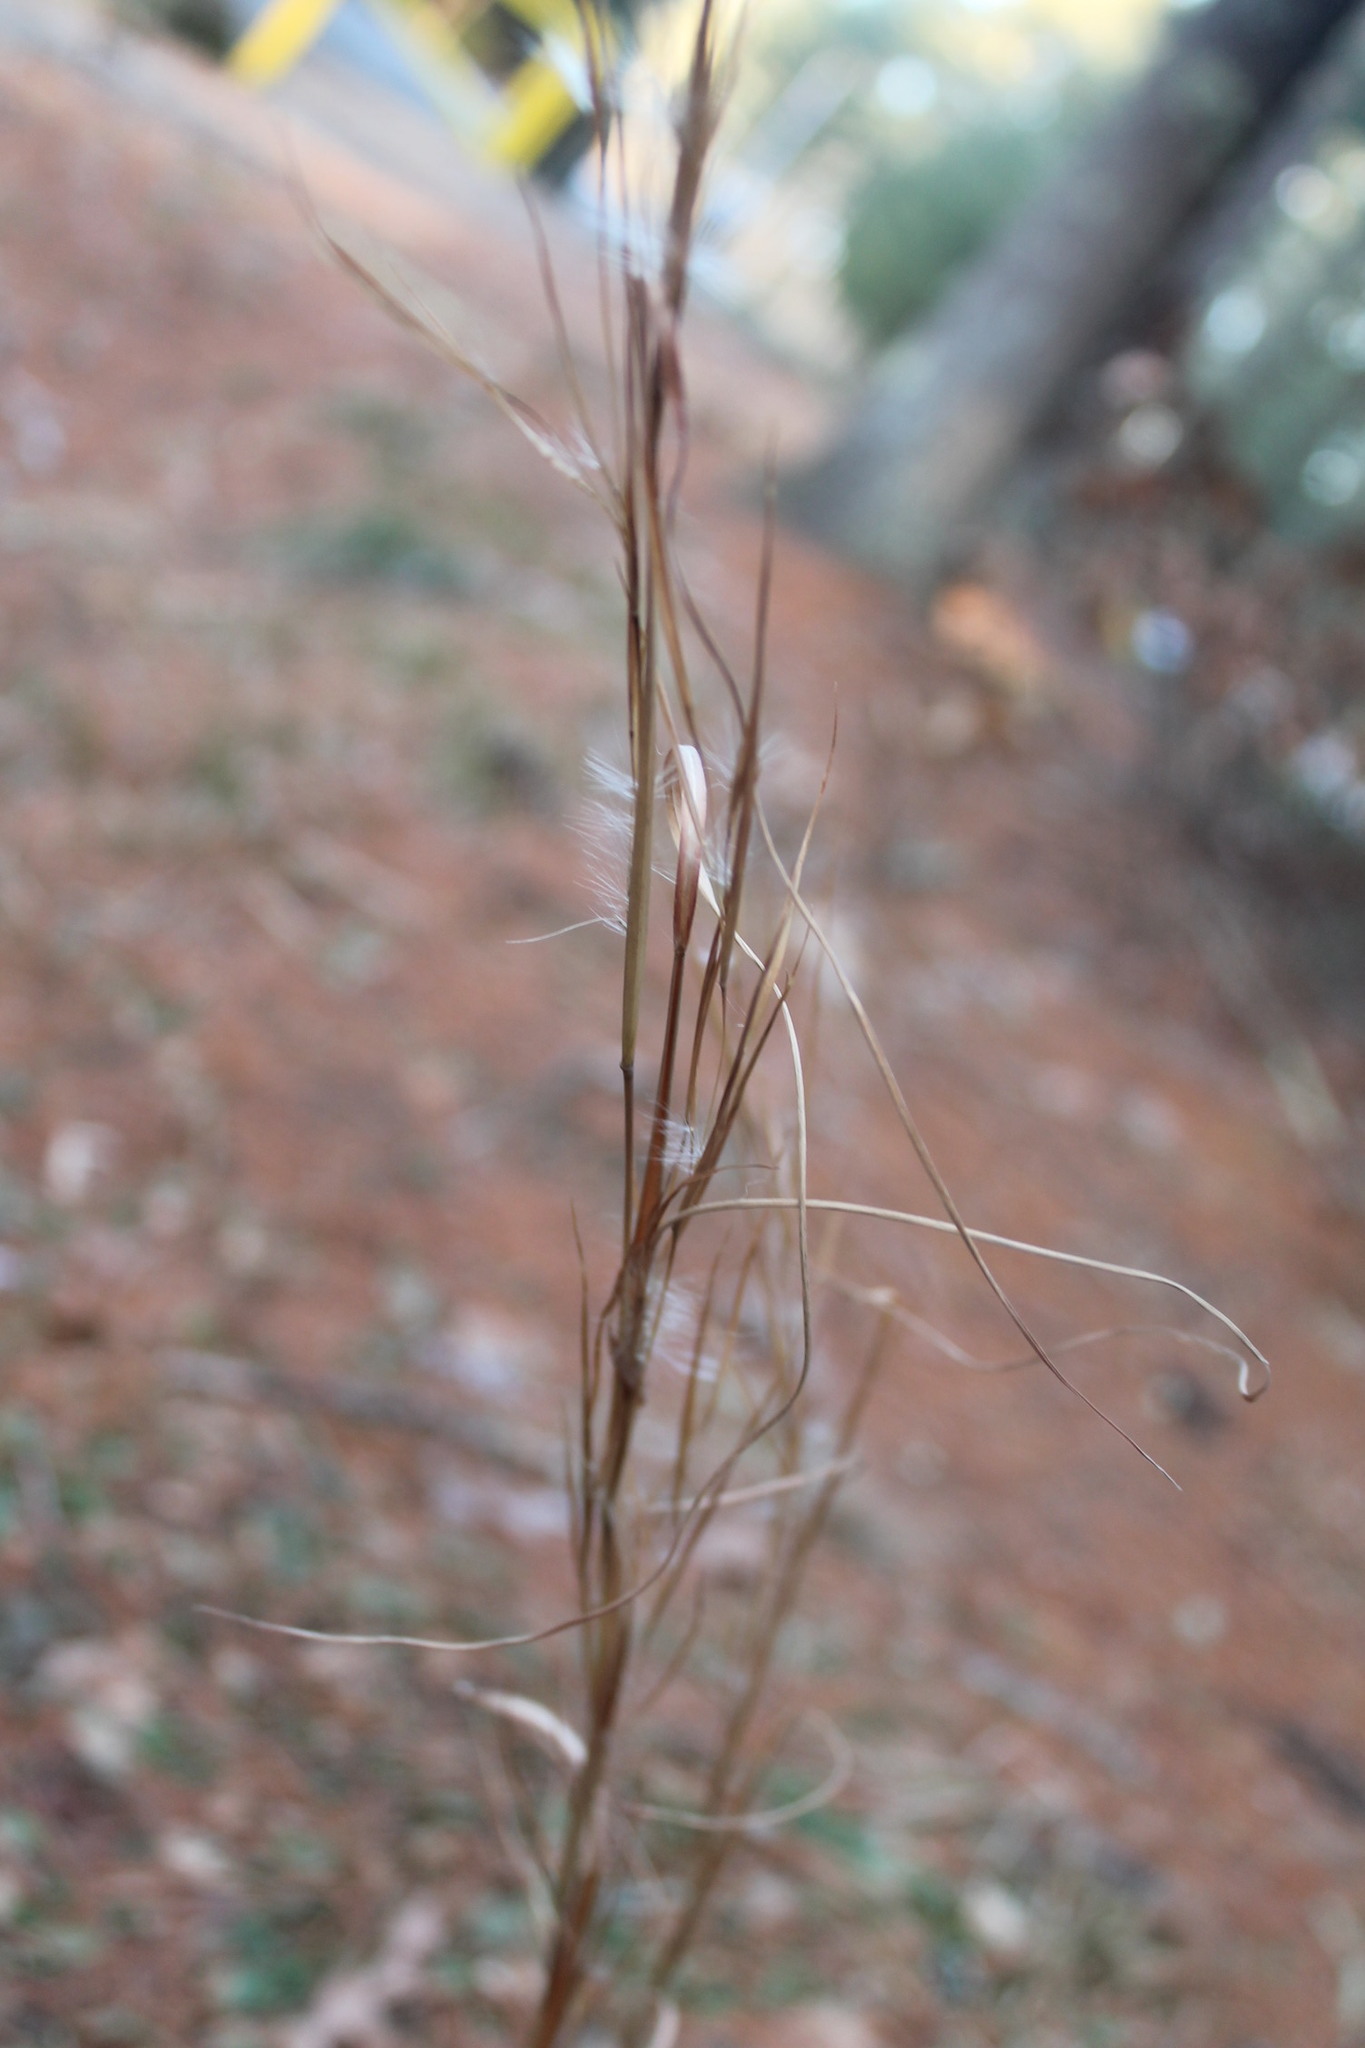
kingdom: Plantae
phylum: Tracheophyta
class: Liliopsida
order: Poales
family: Poaceae
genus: Andropogon
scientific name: Andropogon virginicus
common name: Broomsedge bluestem
